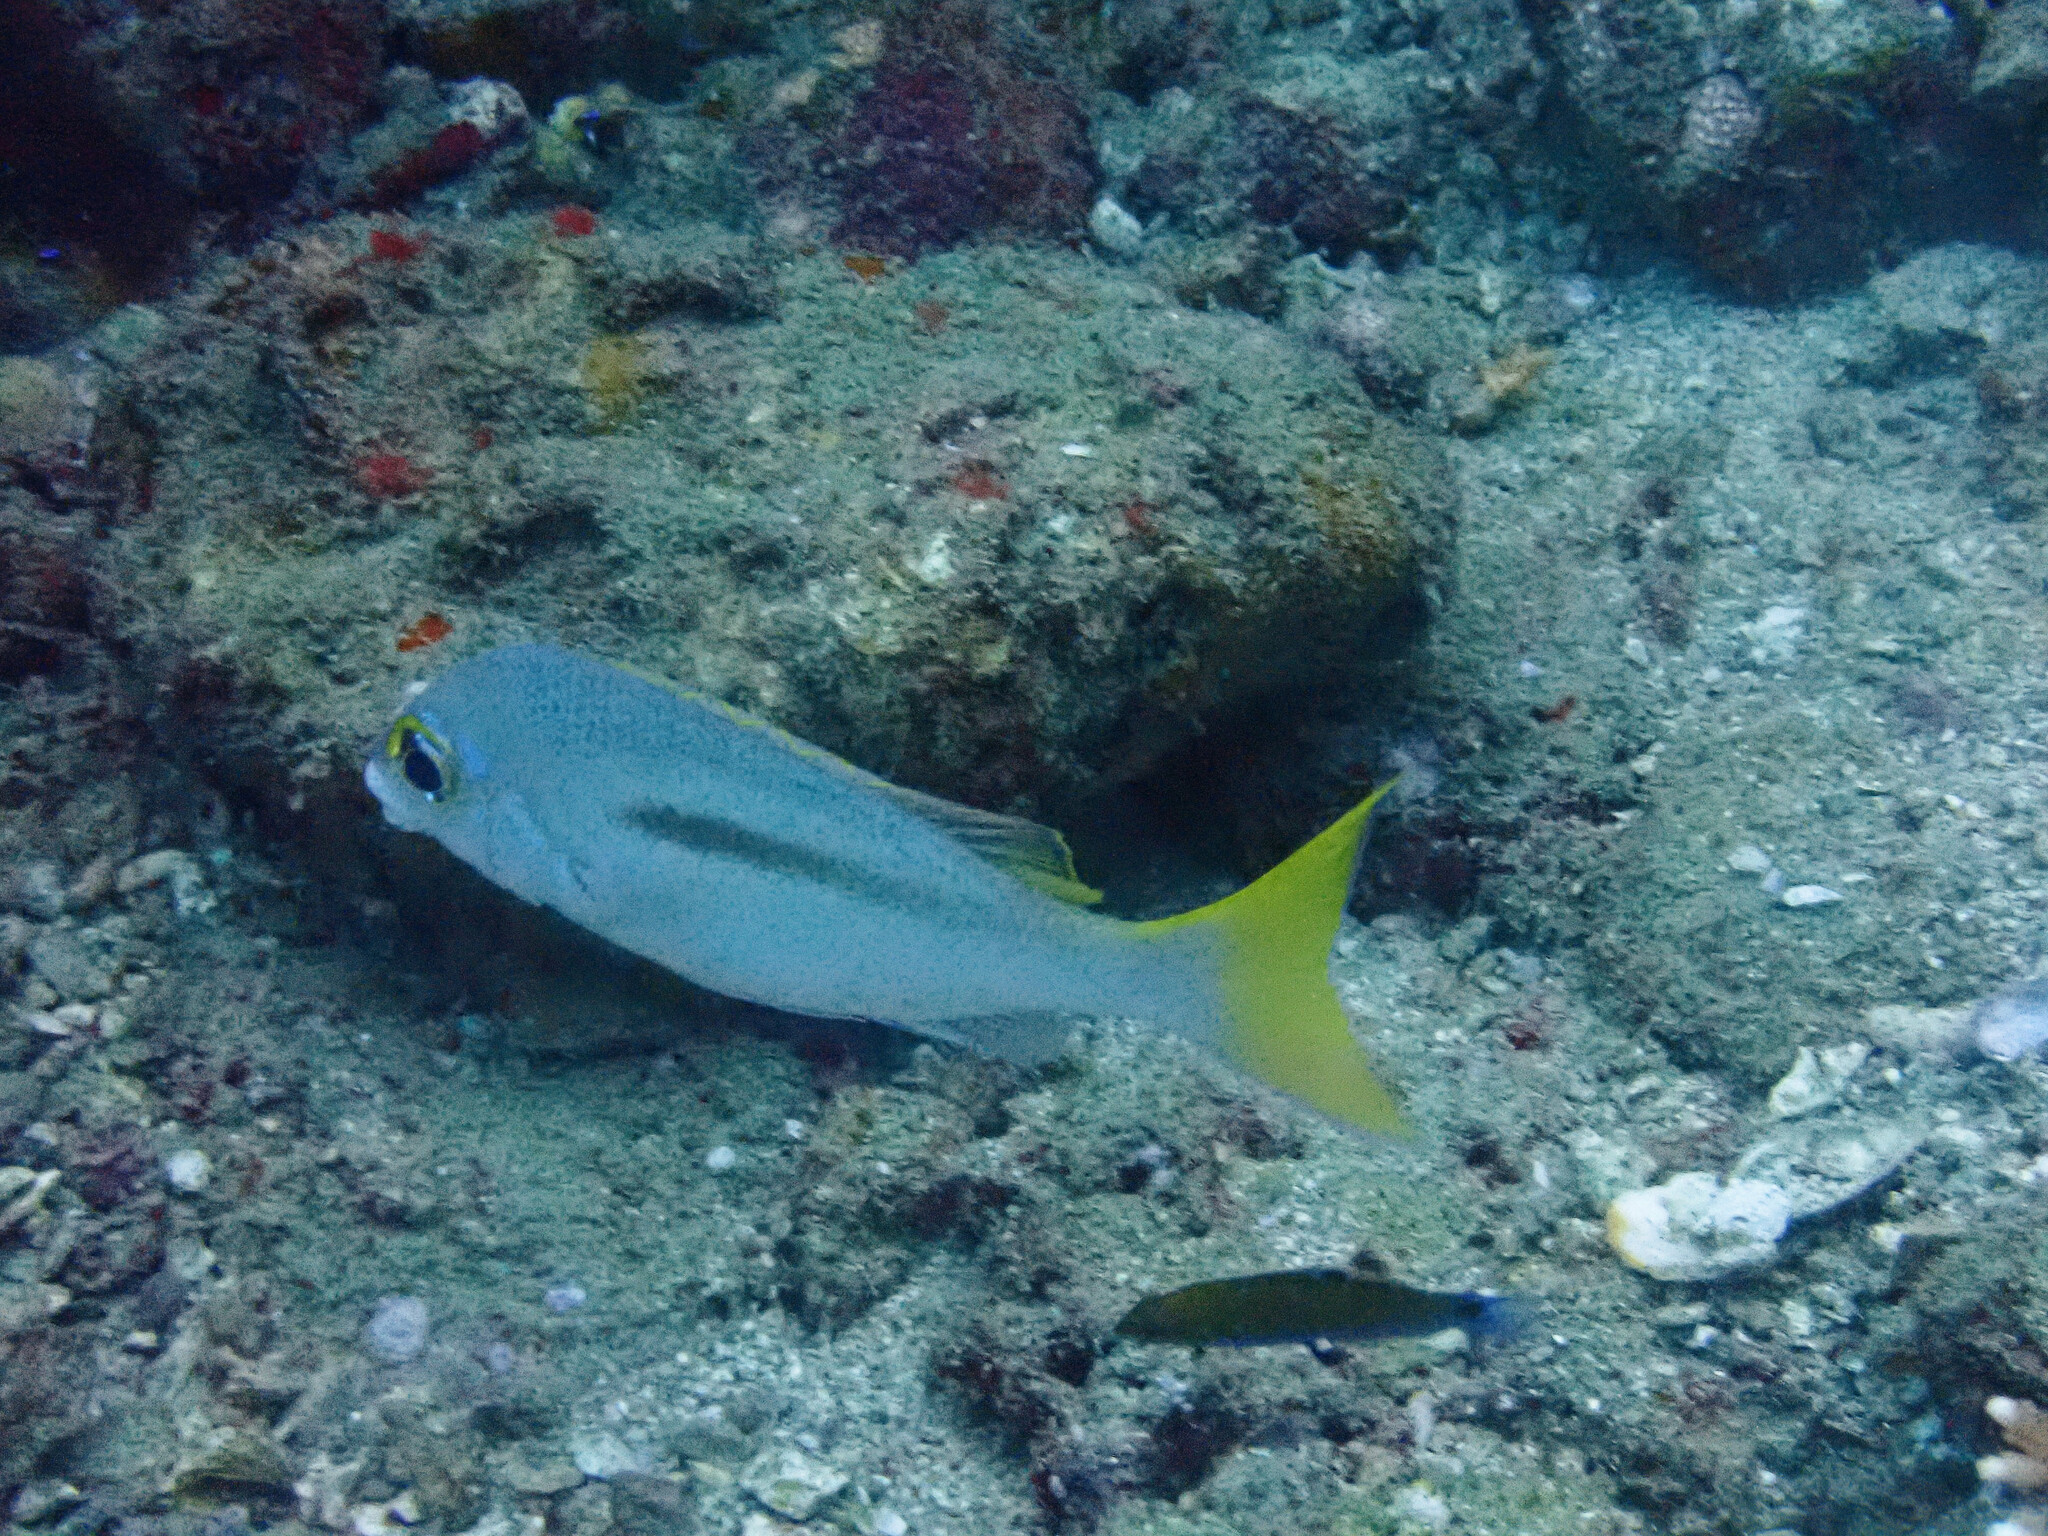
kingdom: Animalia
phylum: Chordata
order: Perciformes
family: Nemipteridae
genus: Scolopsis
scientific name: Scolopsis monogramma
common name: Monogrammed monocle bream
